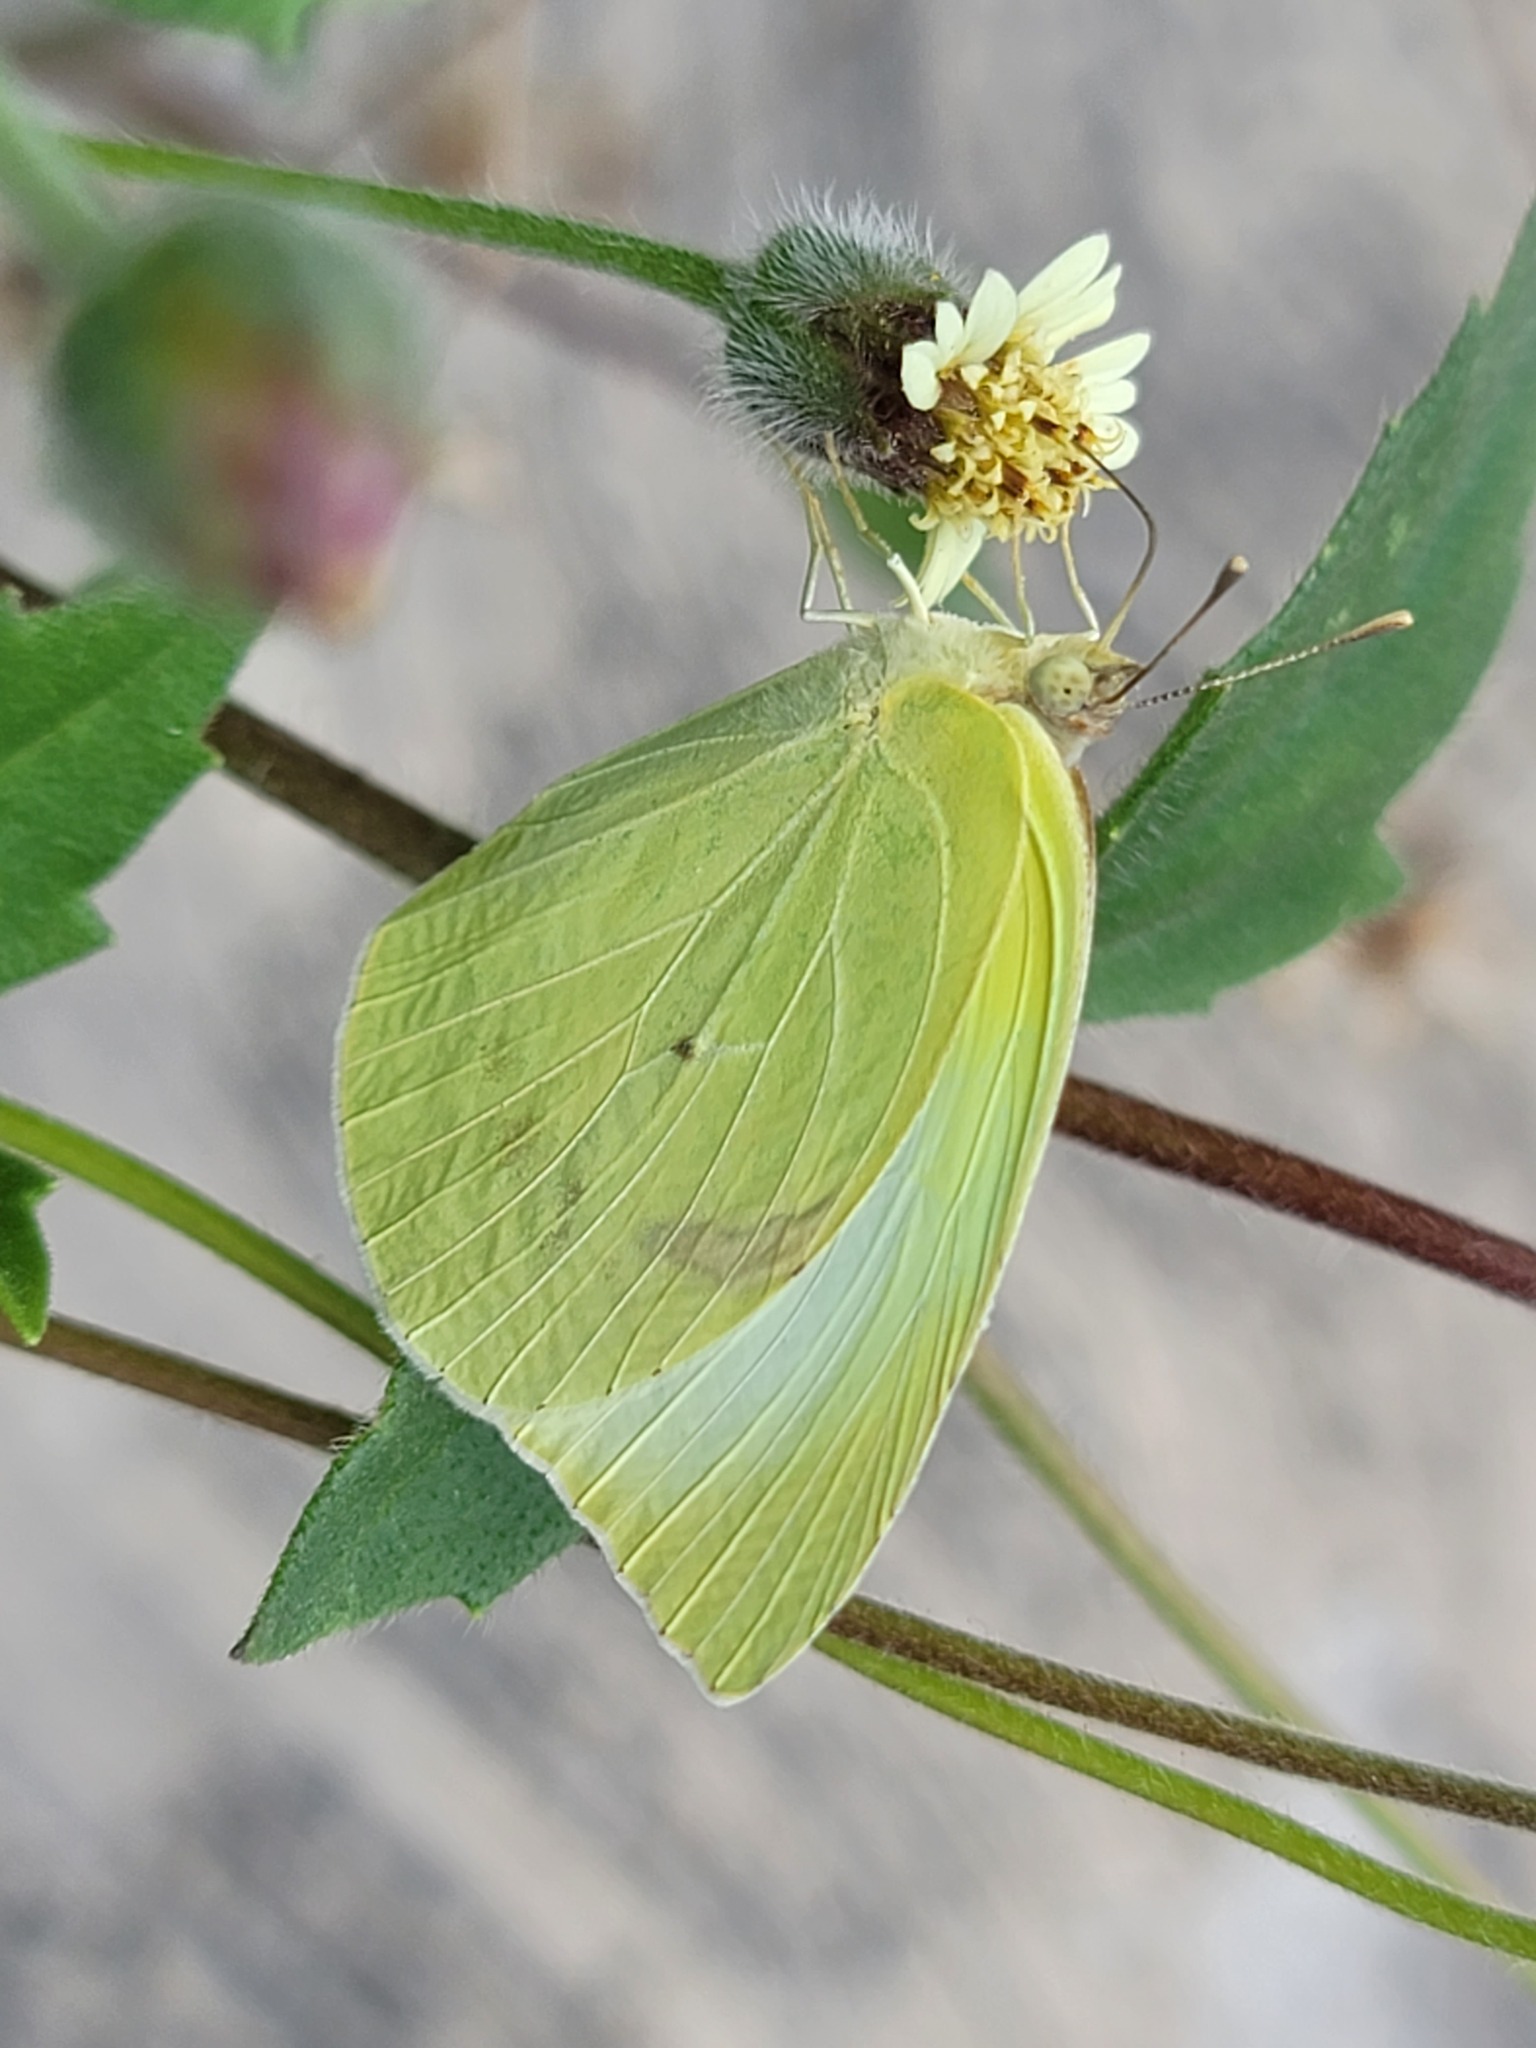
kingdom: Animalia
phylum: Arthropoda
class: Insecta
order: Lepidoptera
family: Pieridae
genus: Kricogonia
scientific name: Kricogonia lyside
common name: Guayacan sulphur,
